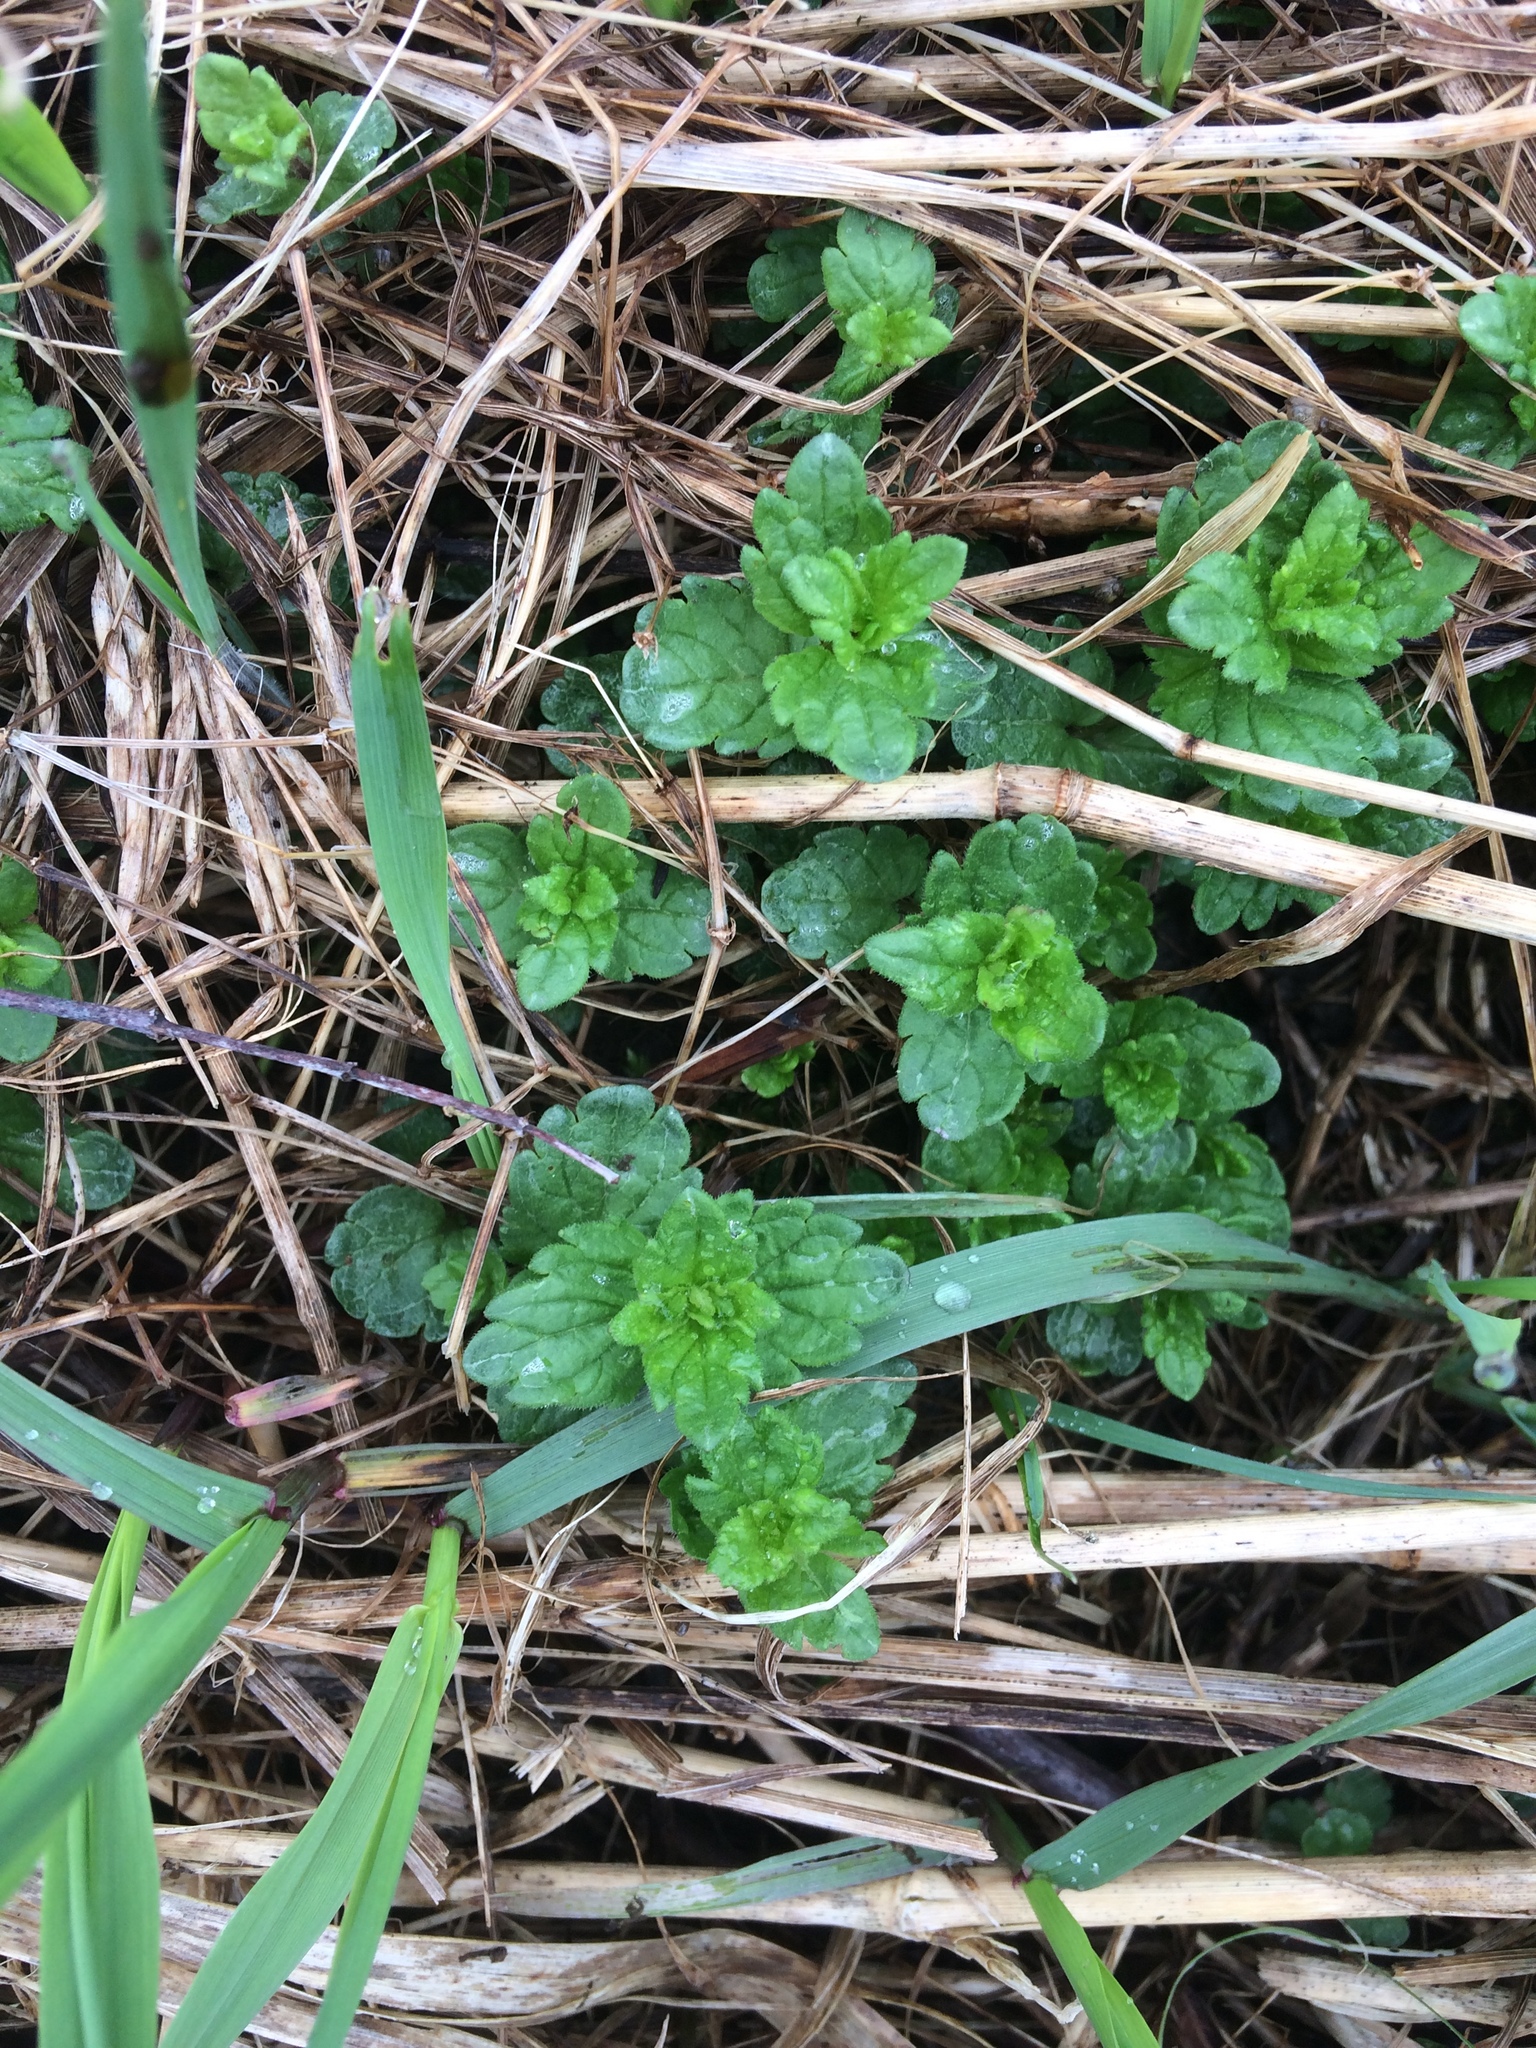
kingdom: Plantae
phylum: Tracheophyta
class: Magnoliopsida
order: Lamiales
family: Plantaginaceae
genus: Veronica
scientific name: Veronica
